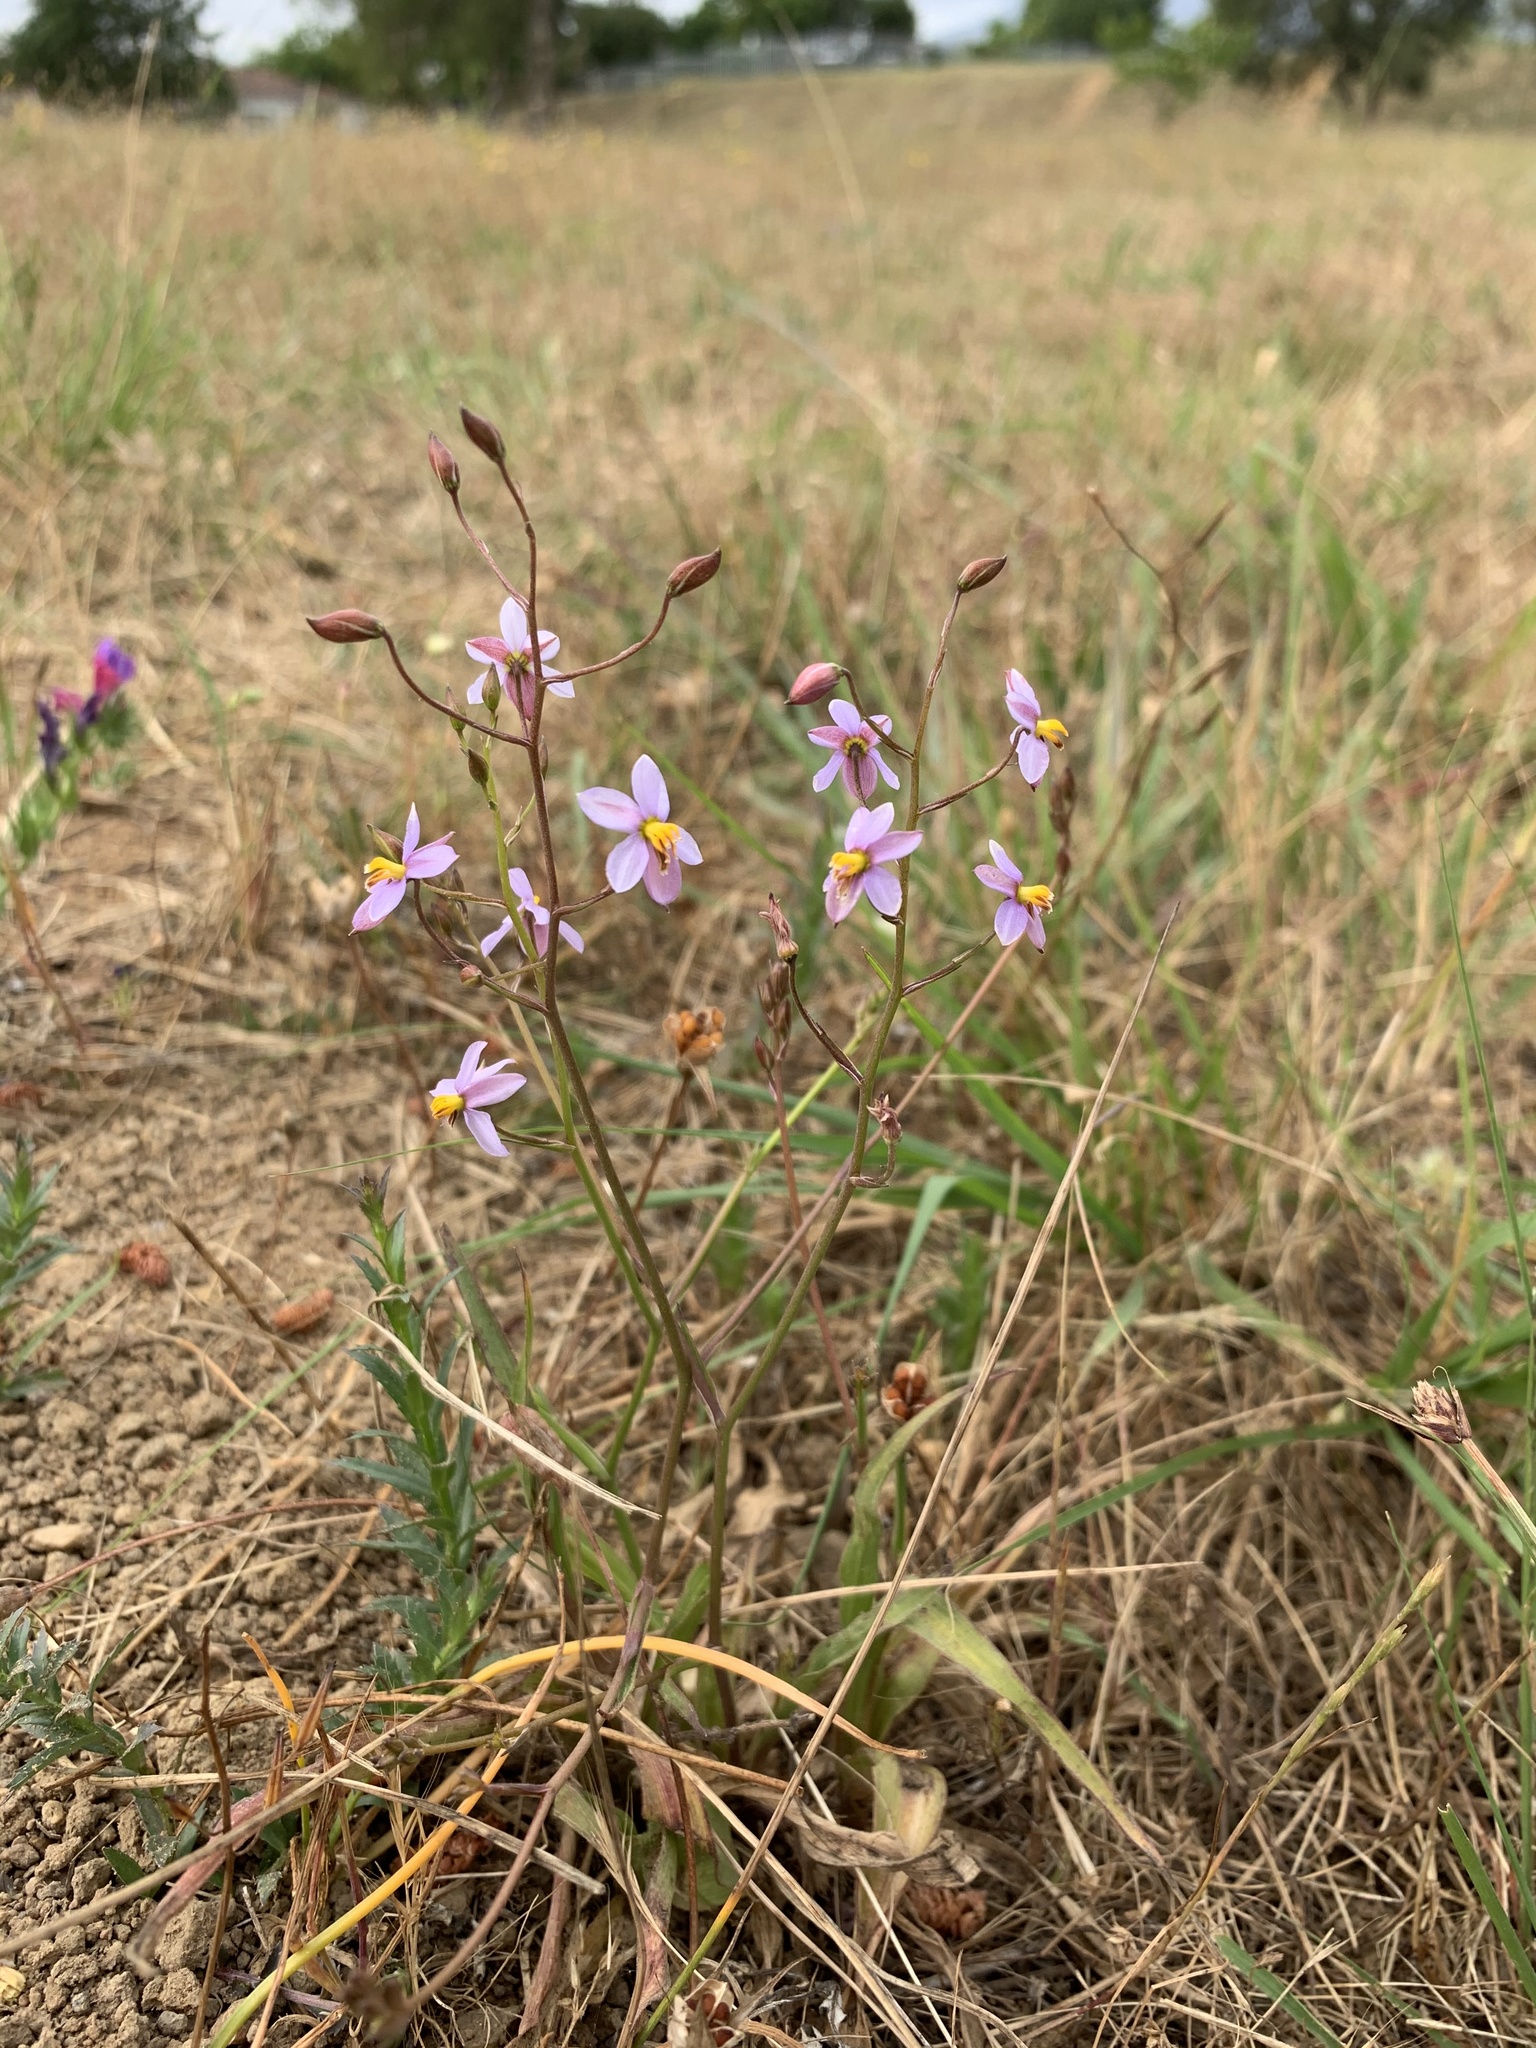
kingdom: Plantae
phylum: Tracheophyta
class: Liliopsida
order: Asparagales
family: Tecophilaeaceae
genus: Cyanella
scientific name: Cyanella hyacinthoides
